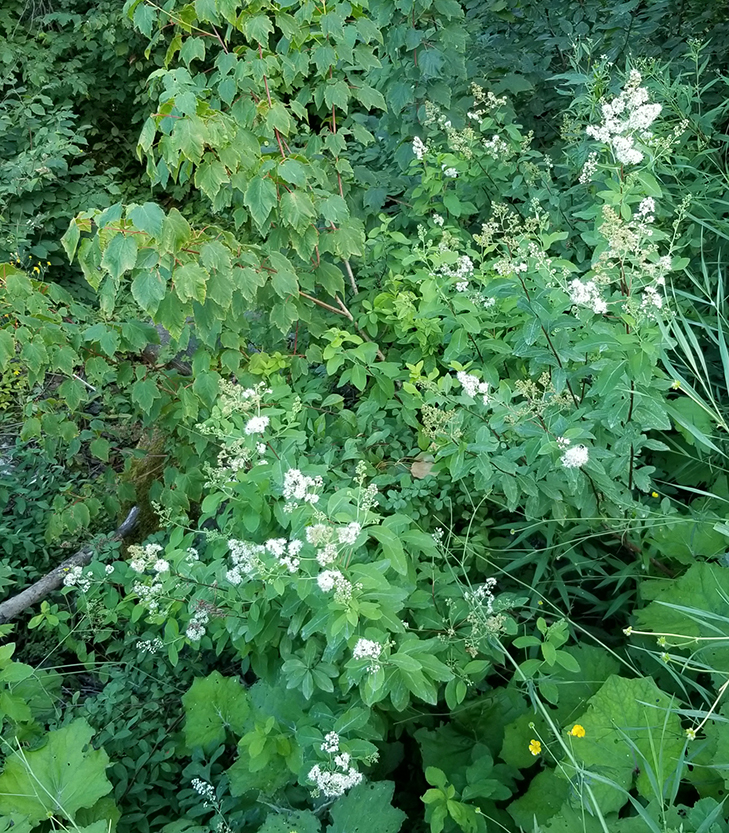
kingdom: Plantae
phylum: Tracheophyta
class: Magnoliopsida
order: Rosales
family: Rosaceae
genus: Spiraea
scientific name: Spiraea alba
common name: Pale bridewort
